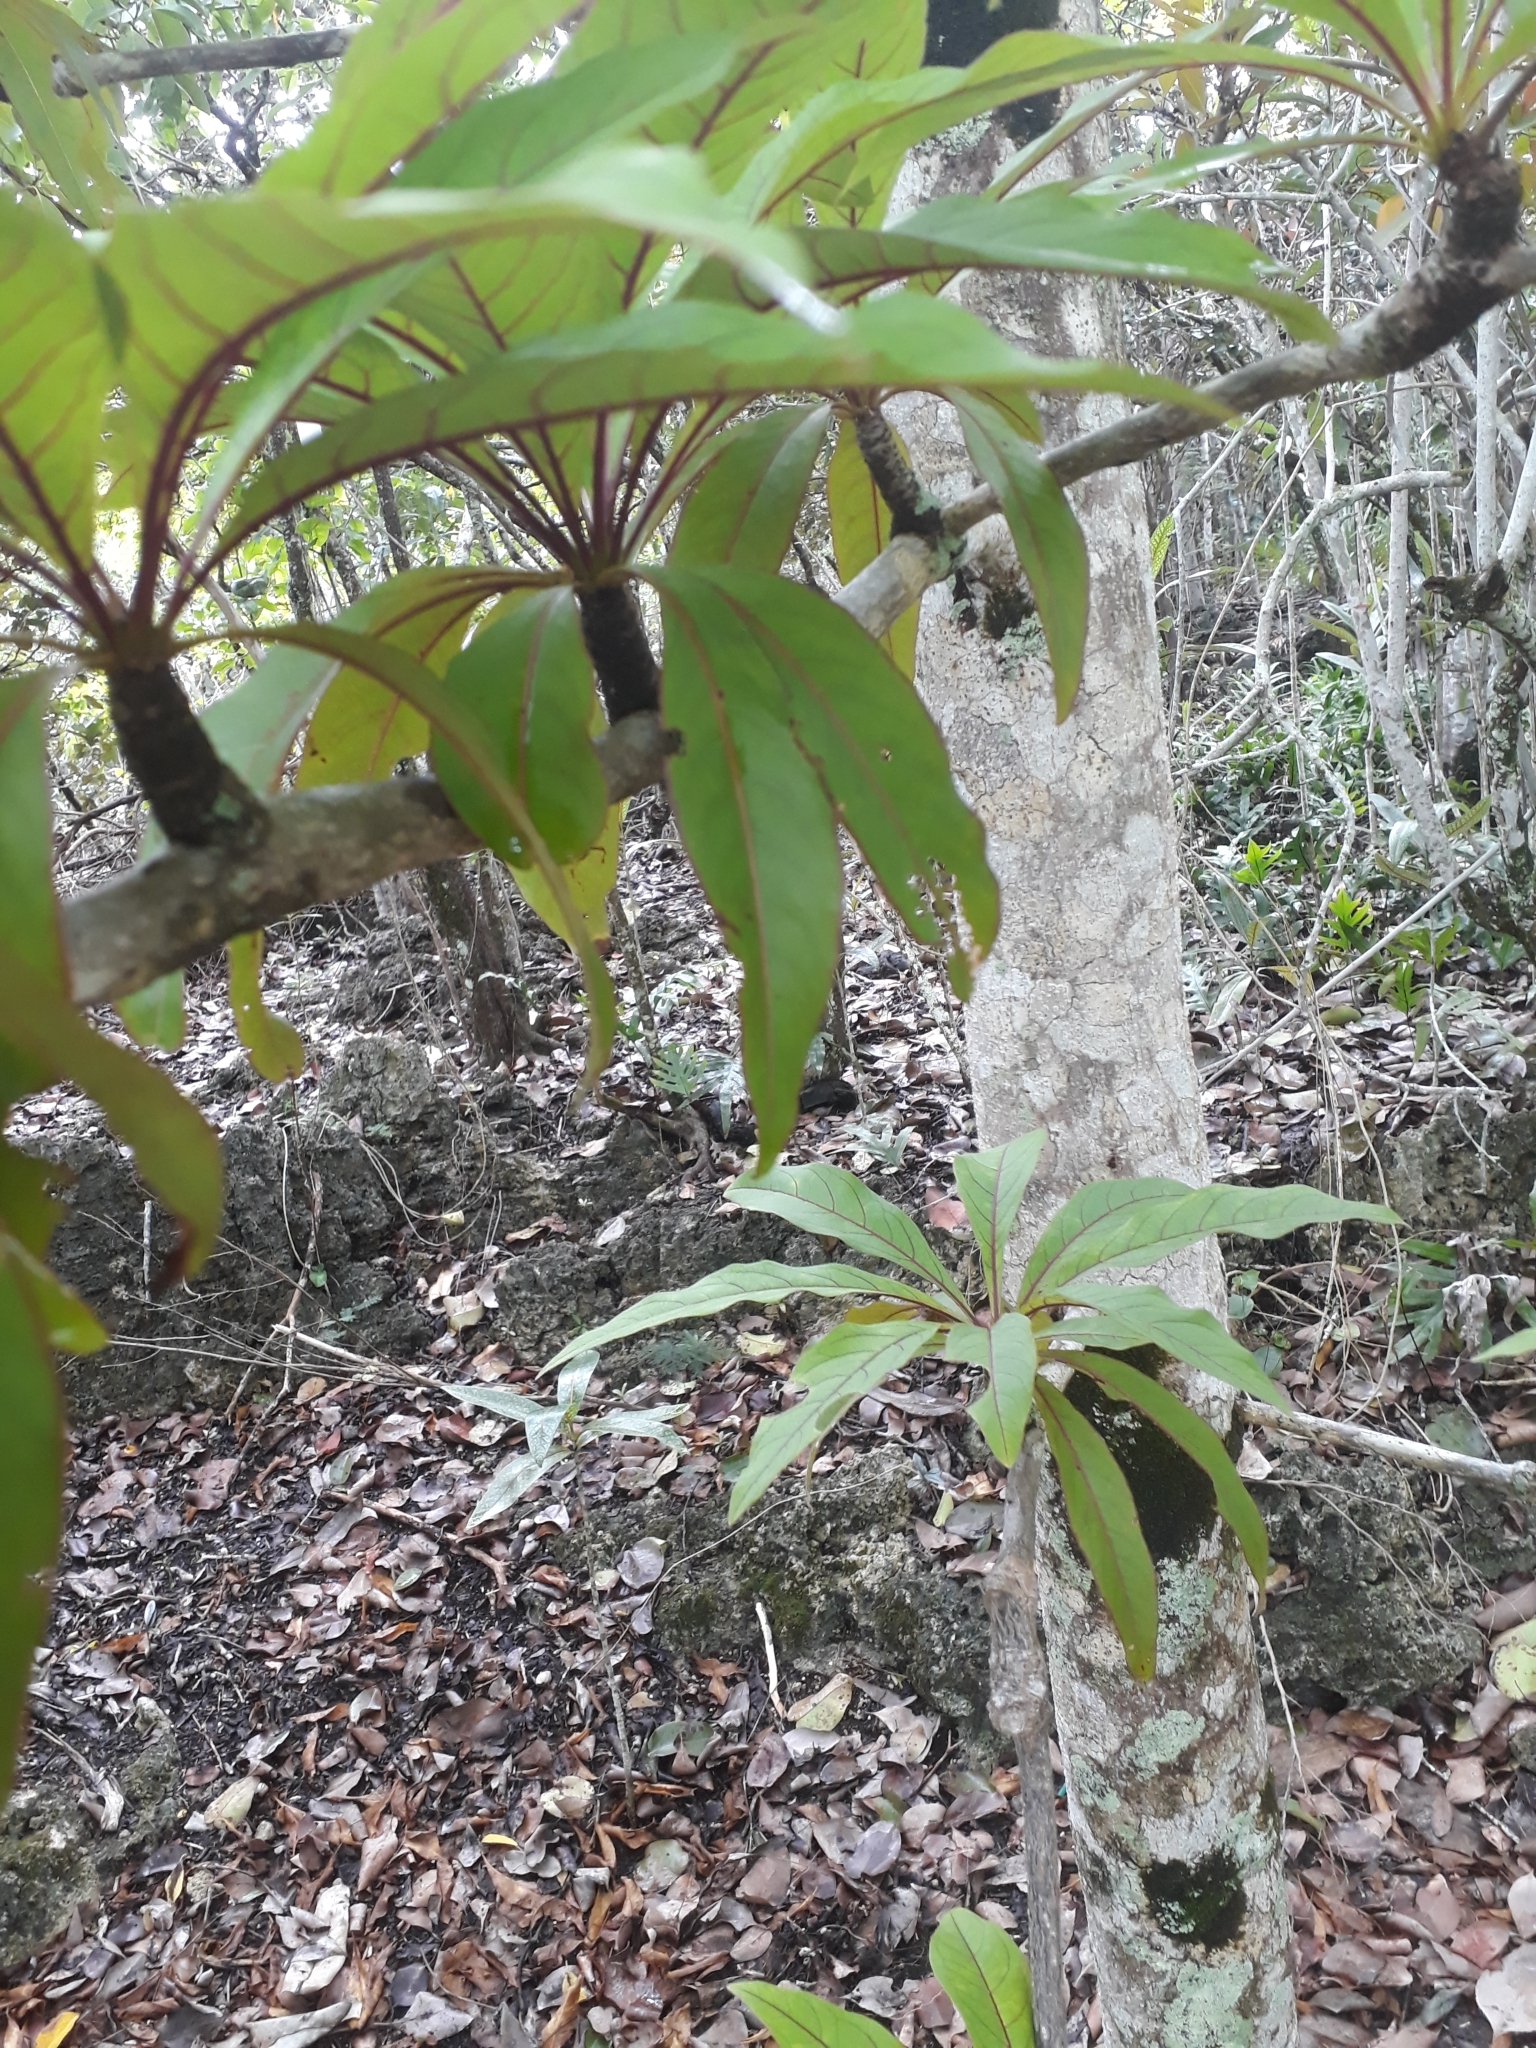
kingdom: Plantae
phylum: Tracheophyta
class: Magnoliopsida
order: Myrtales
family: Combretaceae
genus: Terminalia
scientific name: Terminalia bentzoe
